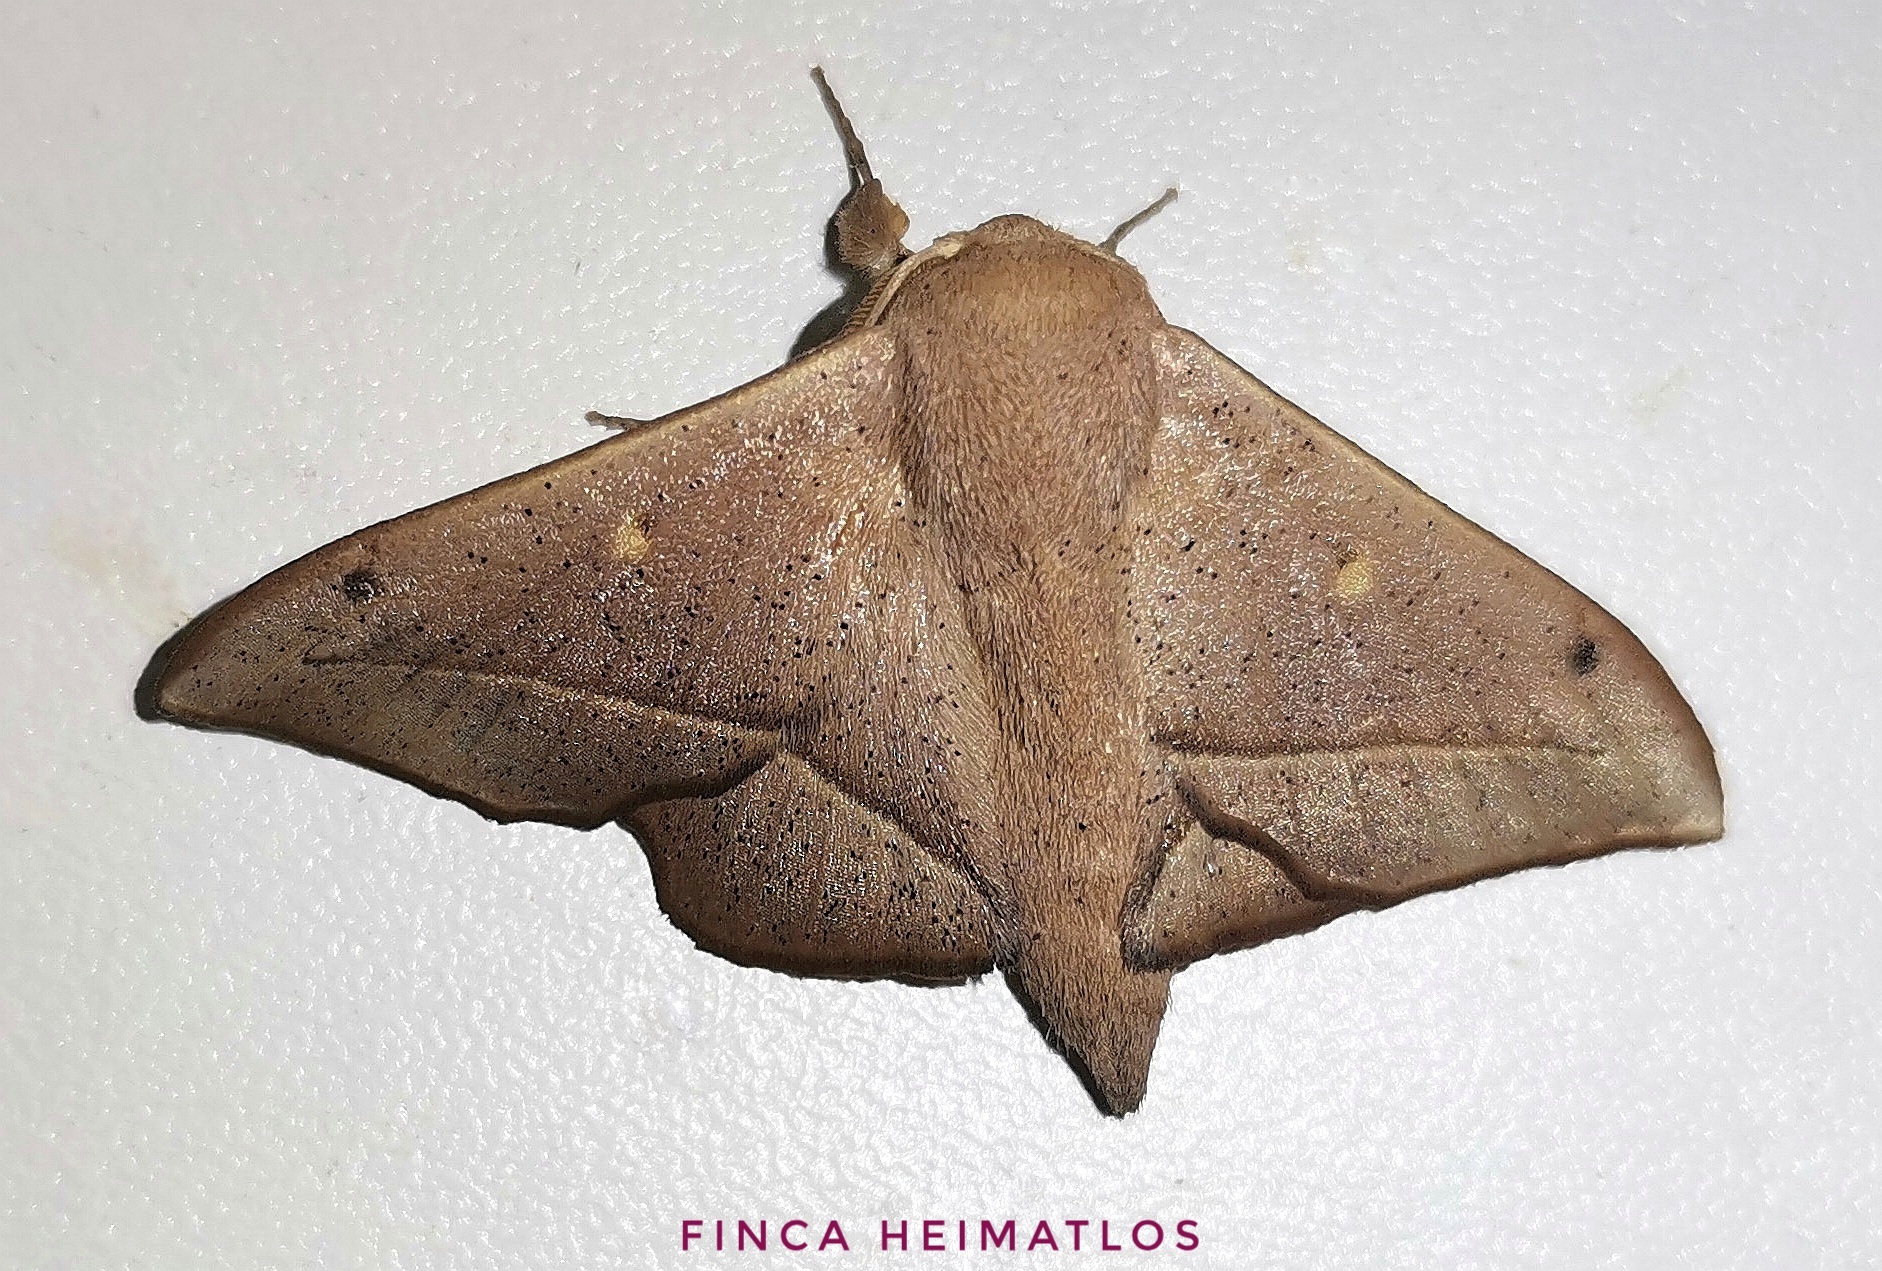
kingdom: Animalia
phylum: Arthropoda
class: Insecta
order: Lepidoptera
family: Mimallonidae
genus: Druentica
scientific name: Druentica partha
